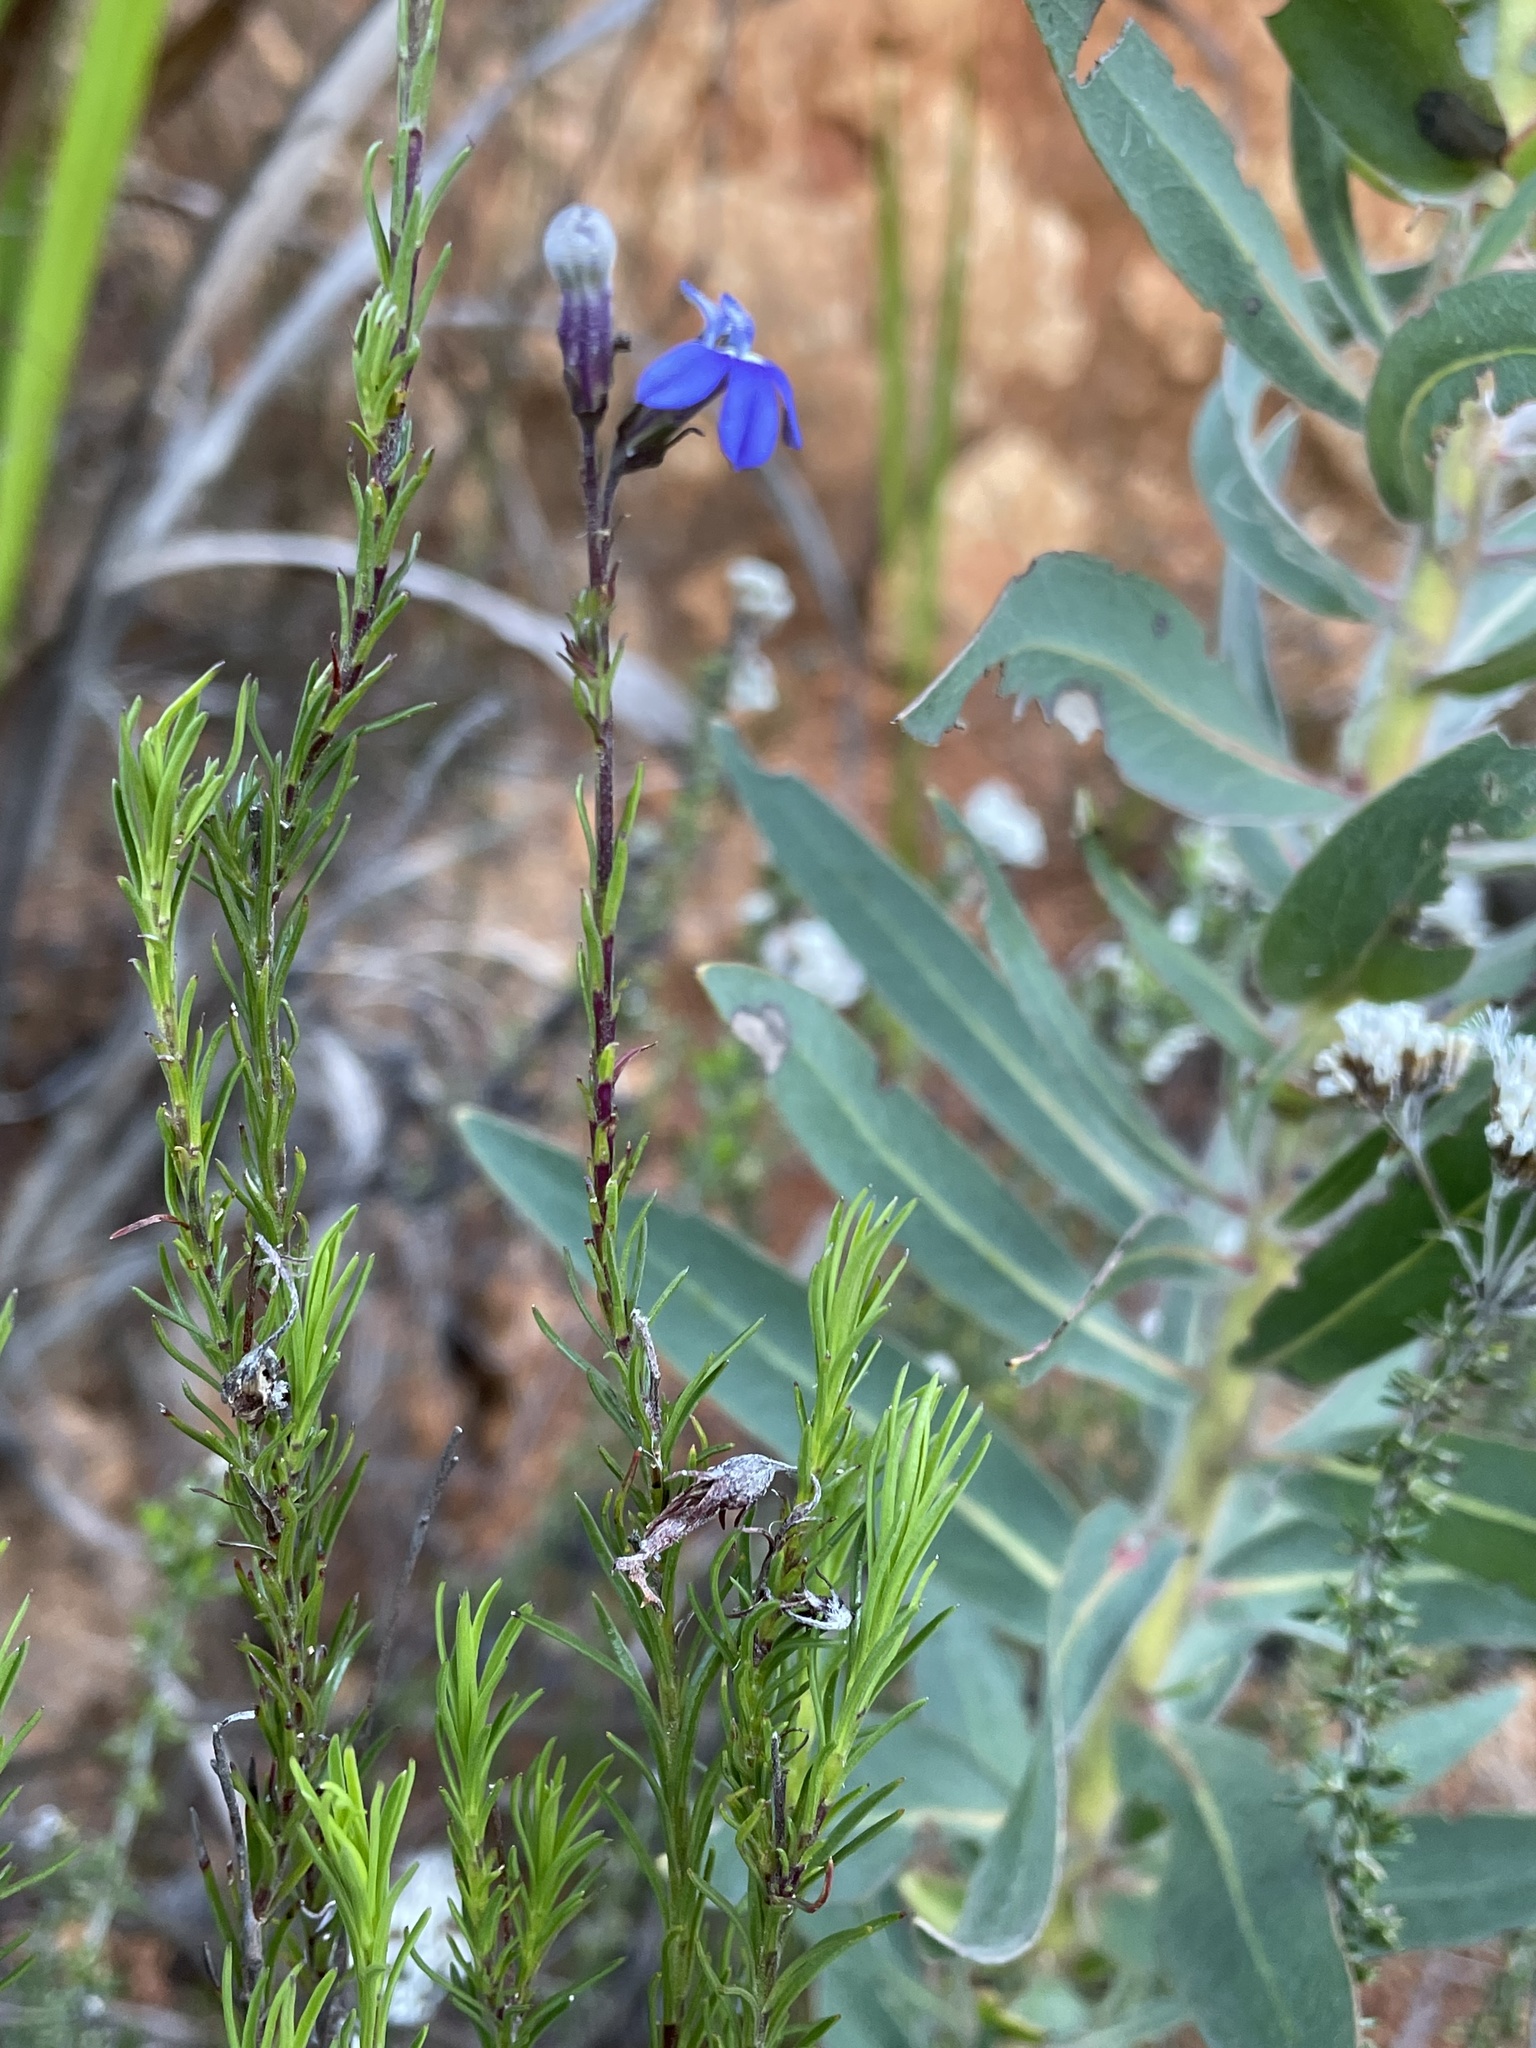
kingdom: Plantae
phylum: Tracheophyta
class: Magnoliopsida
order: Asterales
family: Campanulaceae
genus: Lobelia
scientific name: Lobelia pinifolia
